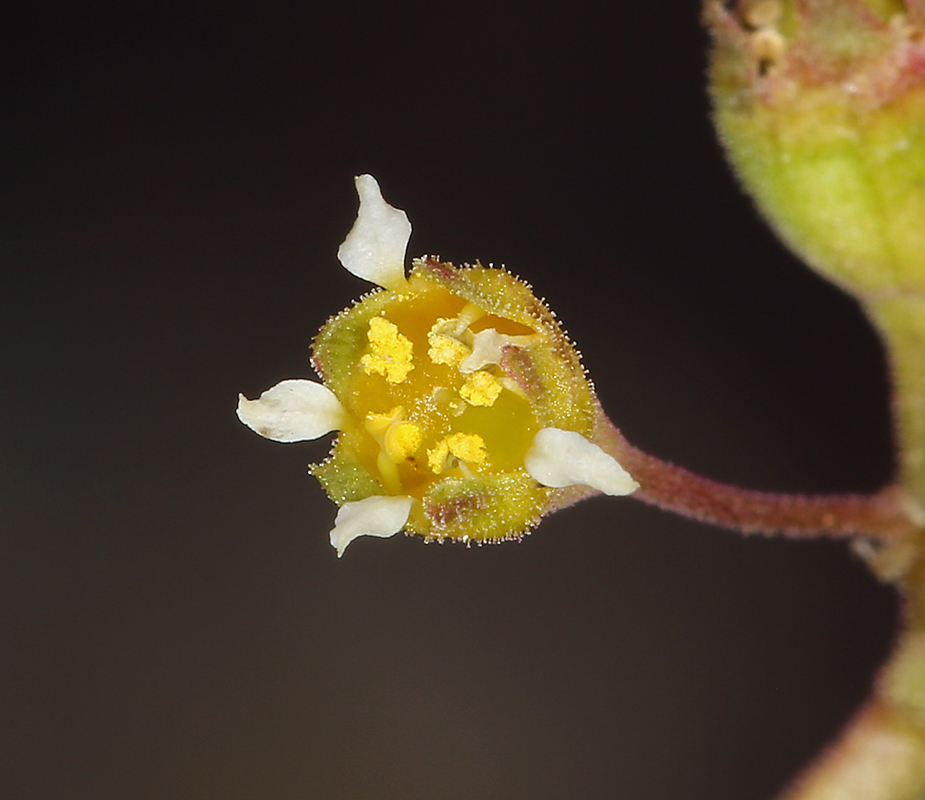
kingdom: Plantae
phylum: Tracheophyta
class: Magnoliopsida
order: Saxifragales
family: Saxifragaceae
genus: Heuchera
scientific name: Heuchera parvifolia
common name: Common alumroot
